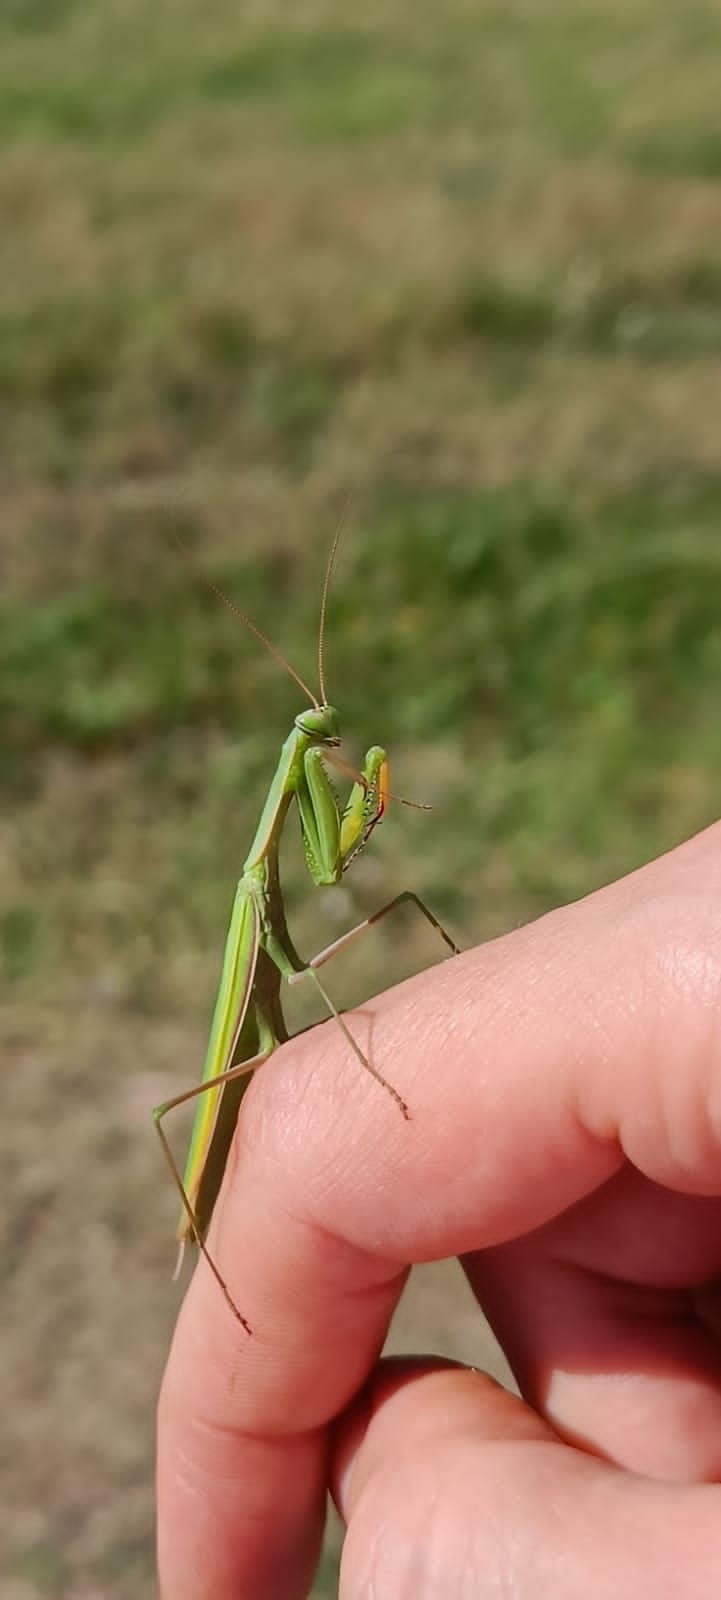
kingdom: Animalia
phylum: Arthropoda
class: Insecta
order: Mantodea
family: Mantidae
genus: Mantis
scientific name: Mantis religiosa
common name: Praying mantis
